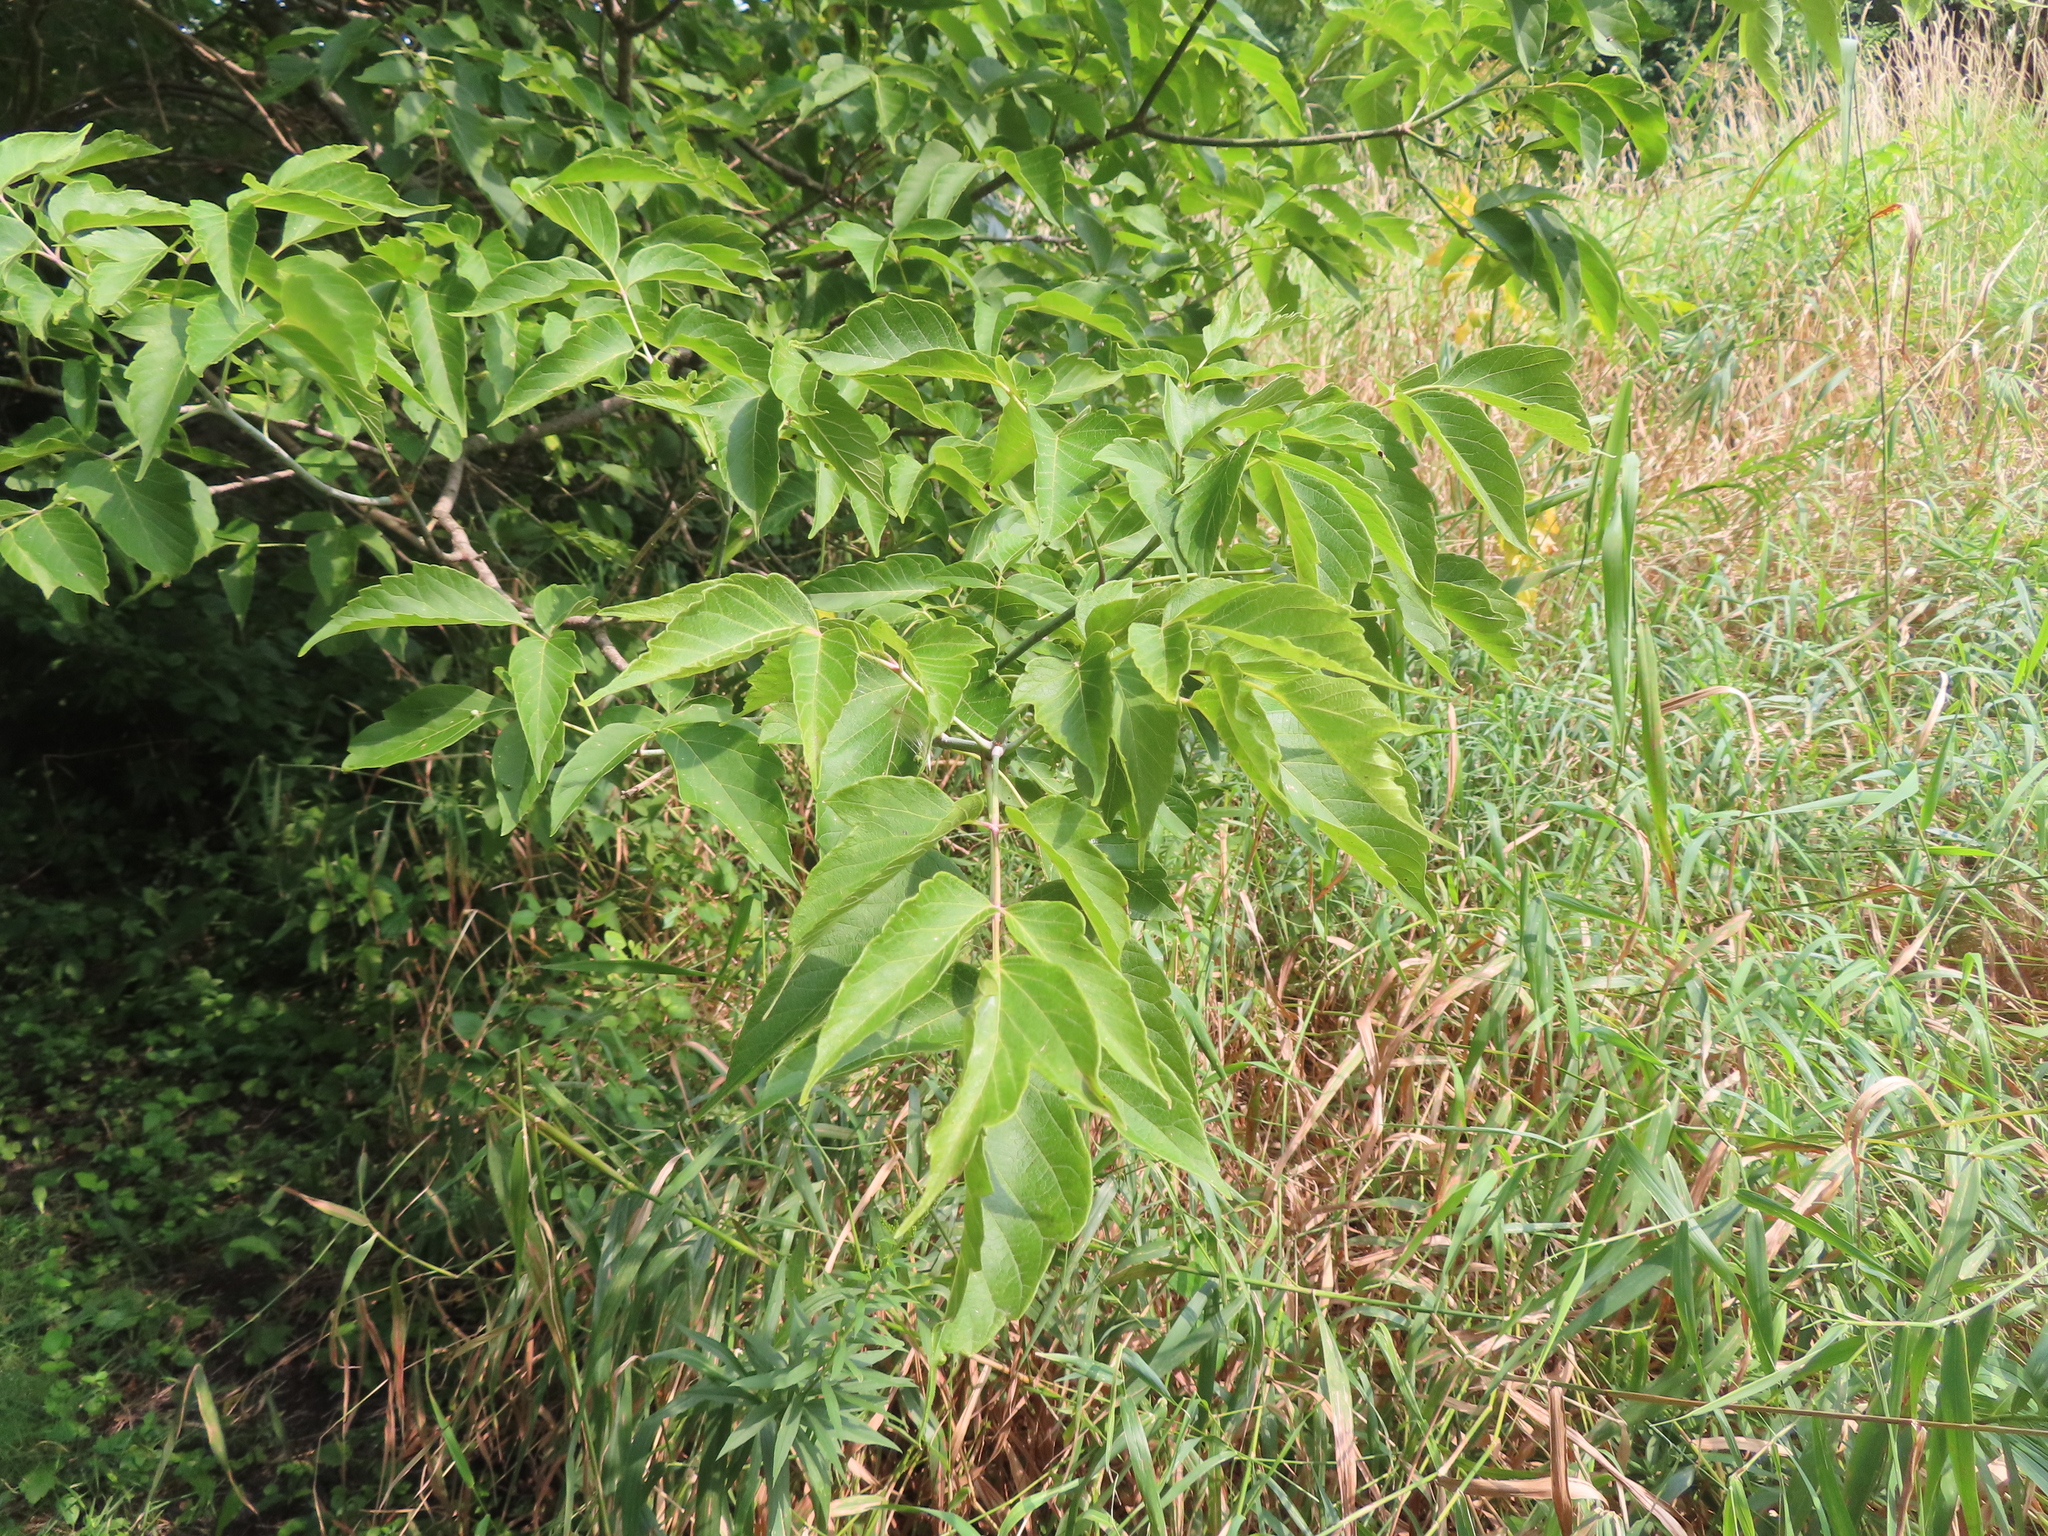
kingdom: Plantae
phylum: Tracheophyta
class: Magnoliopsida
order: Sapindales
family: Sapindaceae
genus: Acer
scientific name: Acer negundo
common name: Ashleaf maple
